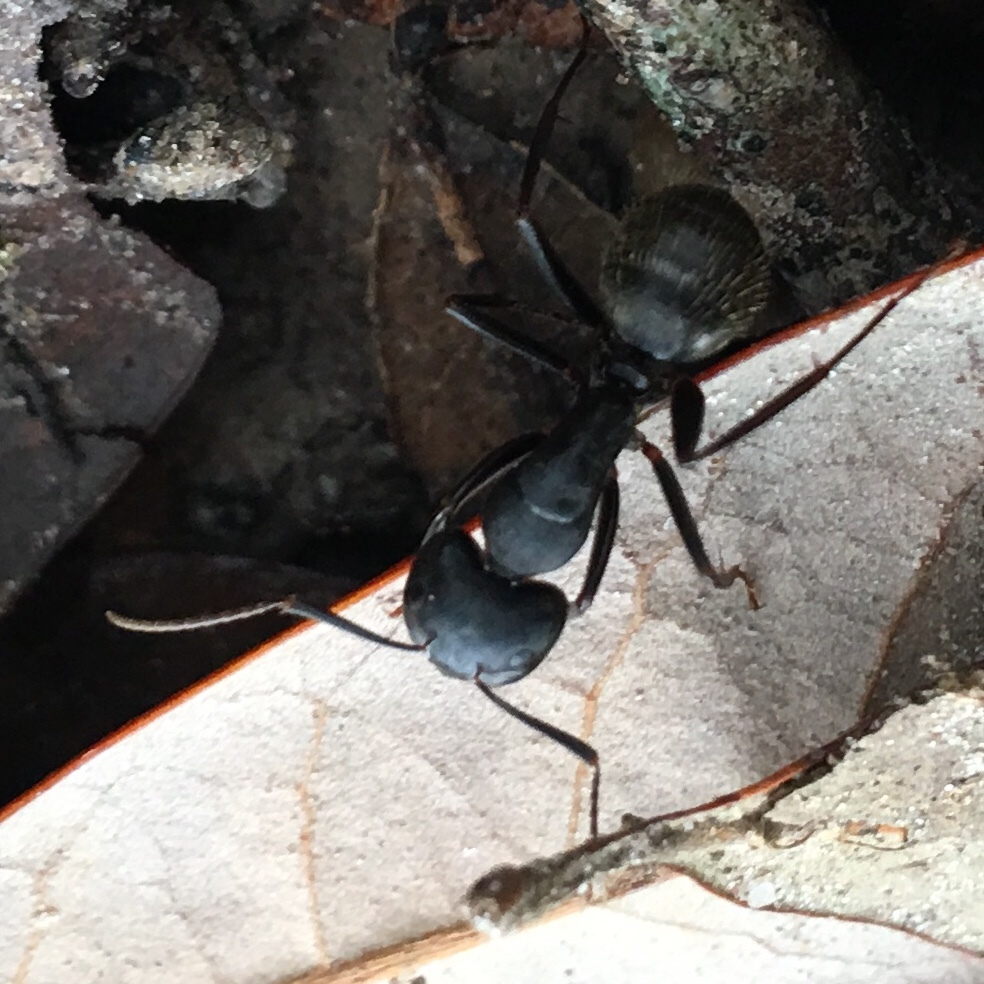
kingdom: Animalia
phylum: Arthropoda
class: Insecta
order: Hymenoptera
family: Formicidae
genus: Camponotus
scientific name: Camponotus pennsylvanicus
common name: Black carpenter ant
